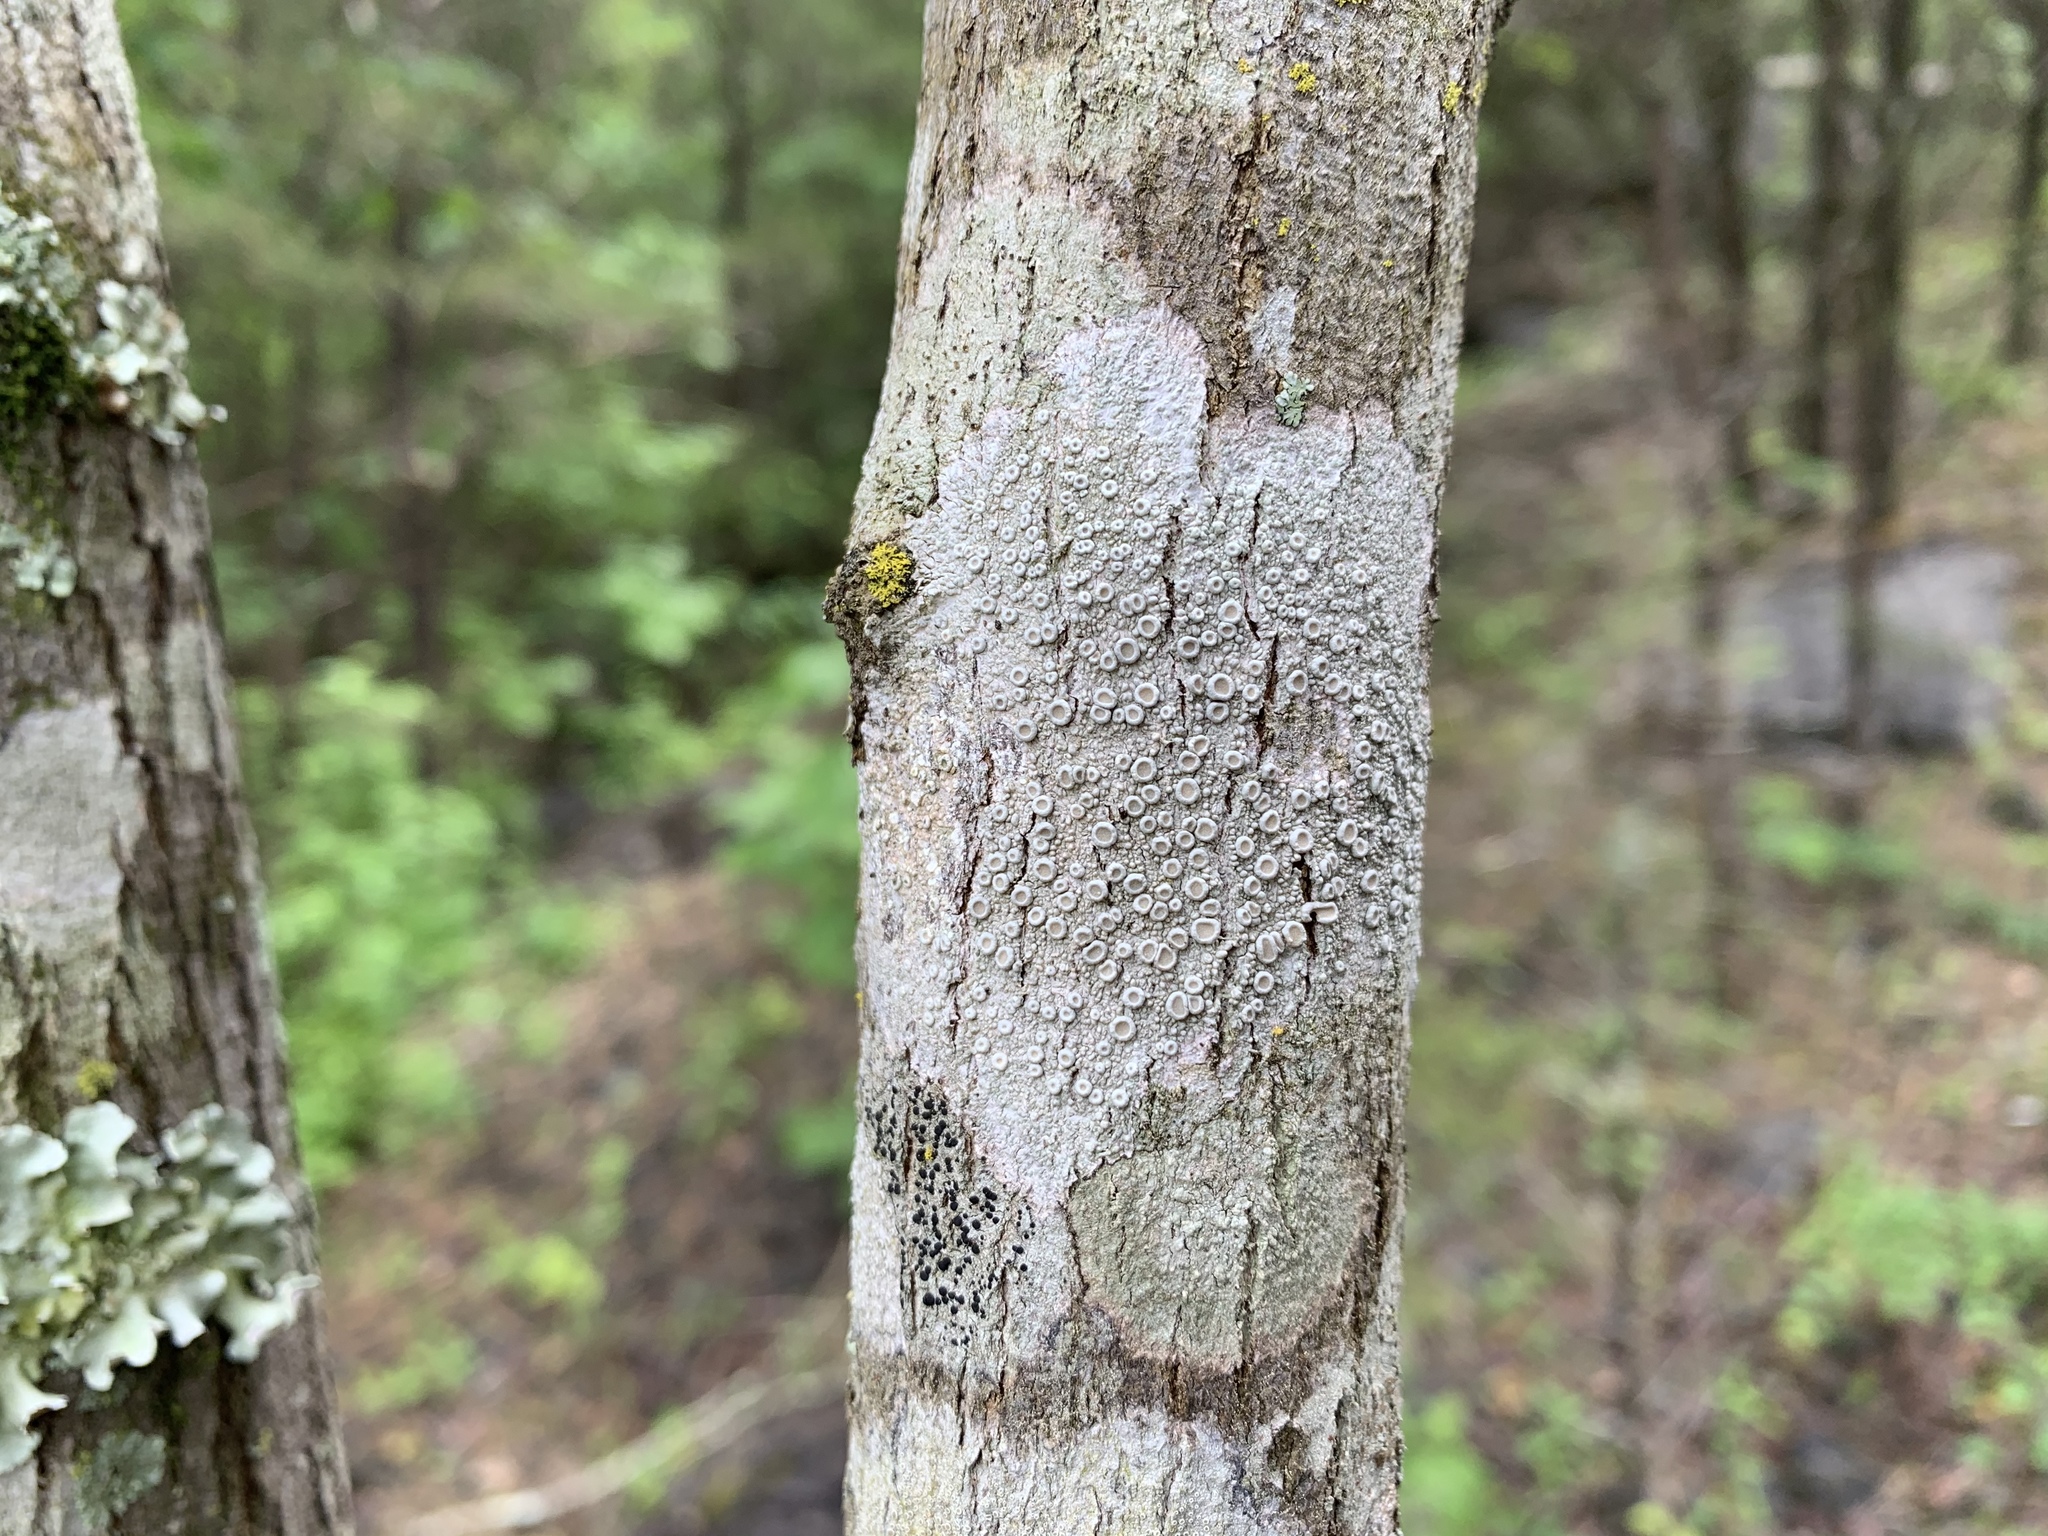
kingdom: Fungi
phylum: Ascomycota
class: Lecanoromycetes
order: Pertusariales
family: Ochrolechiaceae
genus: Ochrolechia
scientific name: Ochrolechia africana
